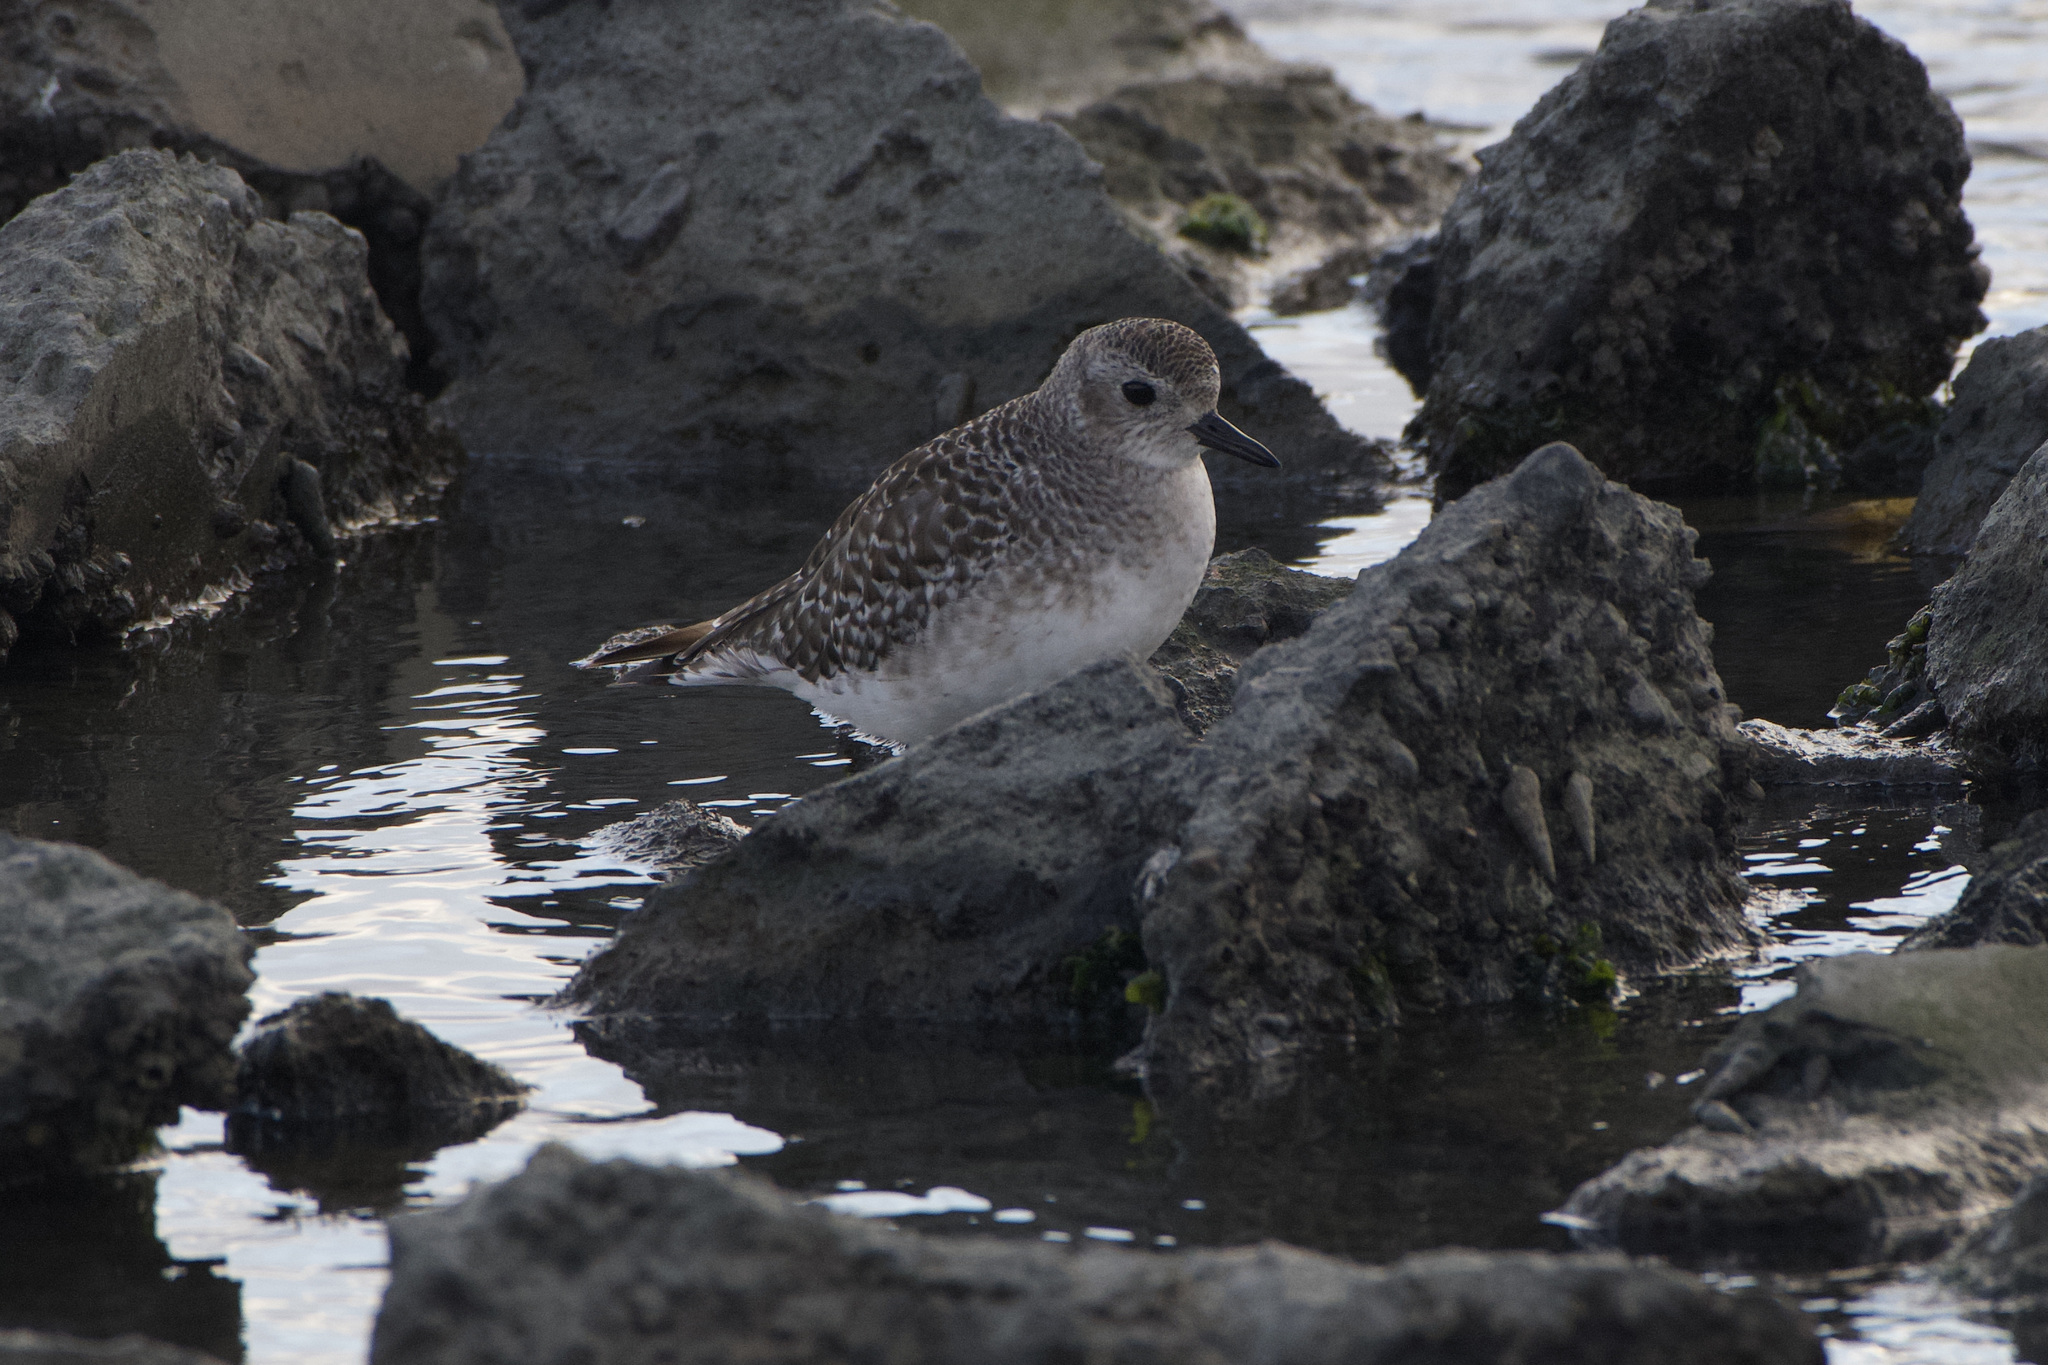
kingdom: Animalia
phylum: Chordata
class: Aves
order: Charadriiformes
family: Charadriidae
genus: Pluvialis
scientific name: Pluvialis squatarola
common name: Grey plover
